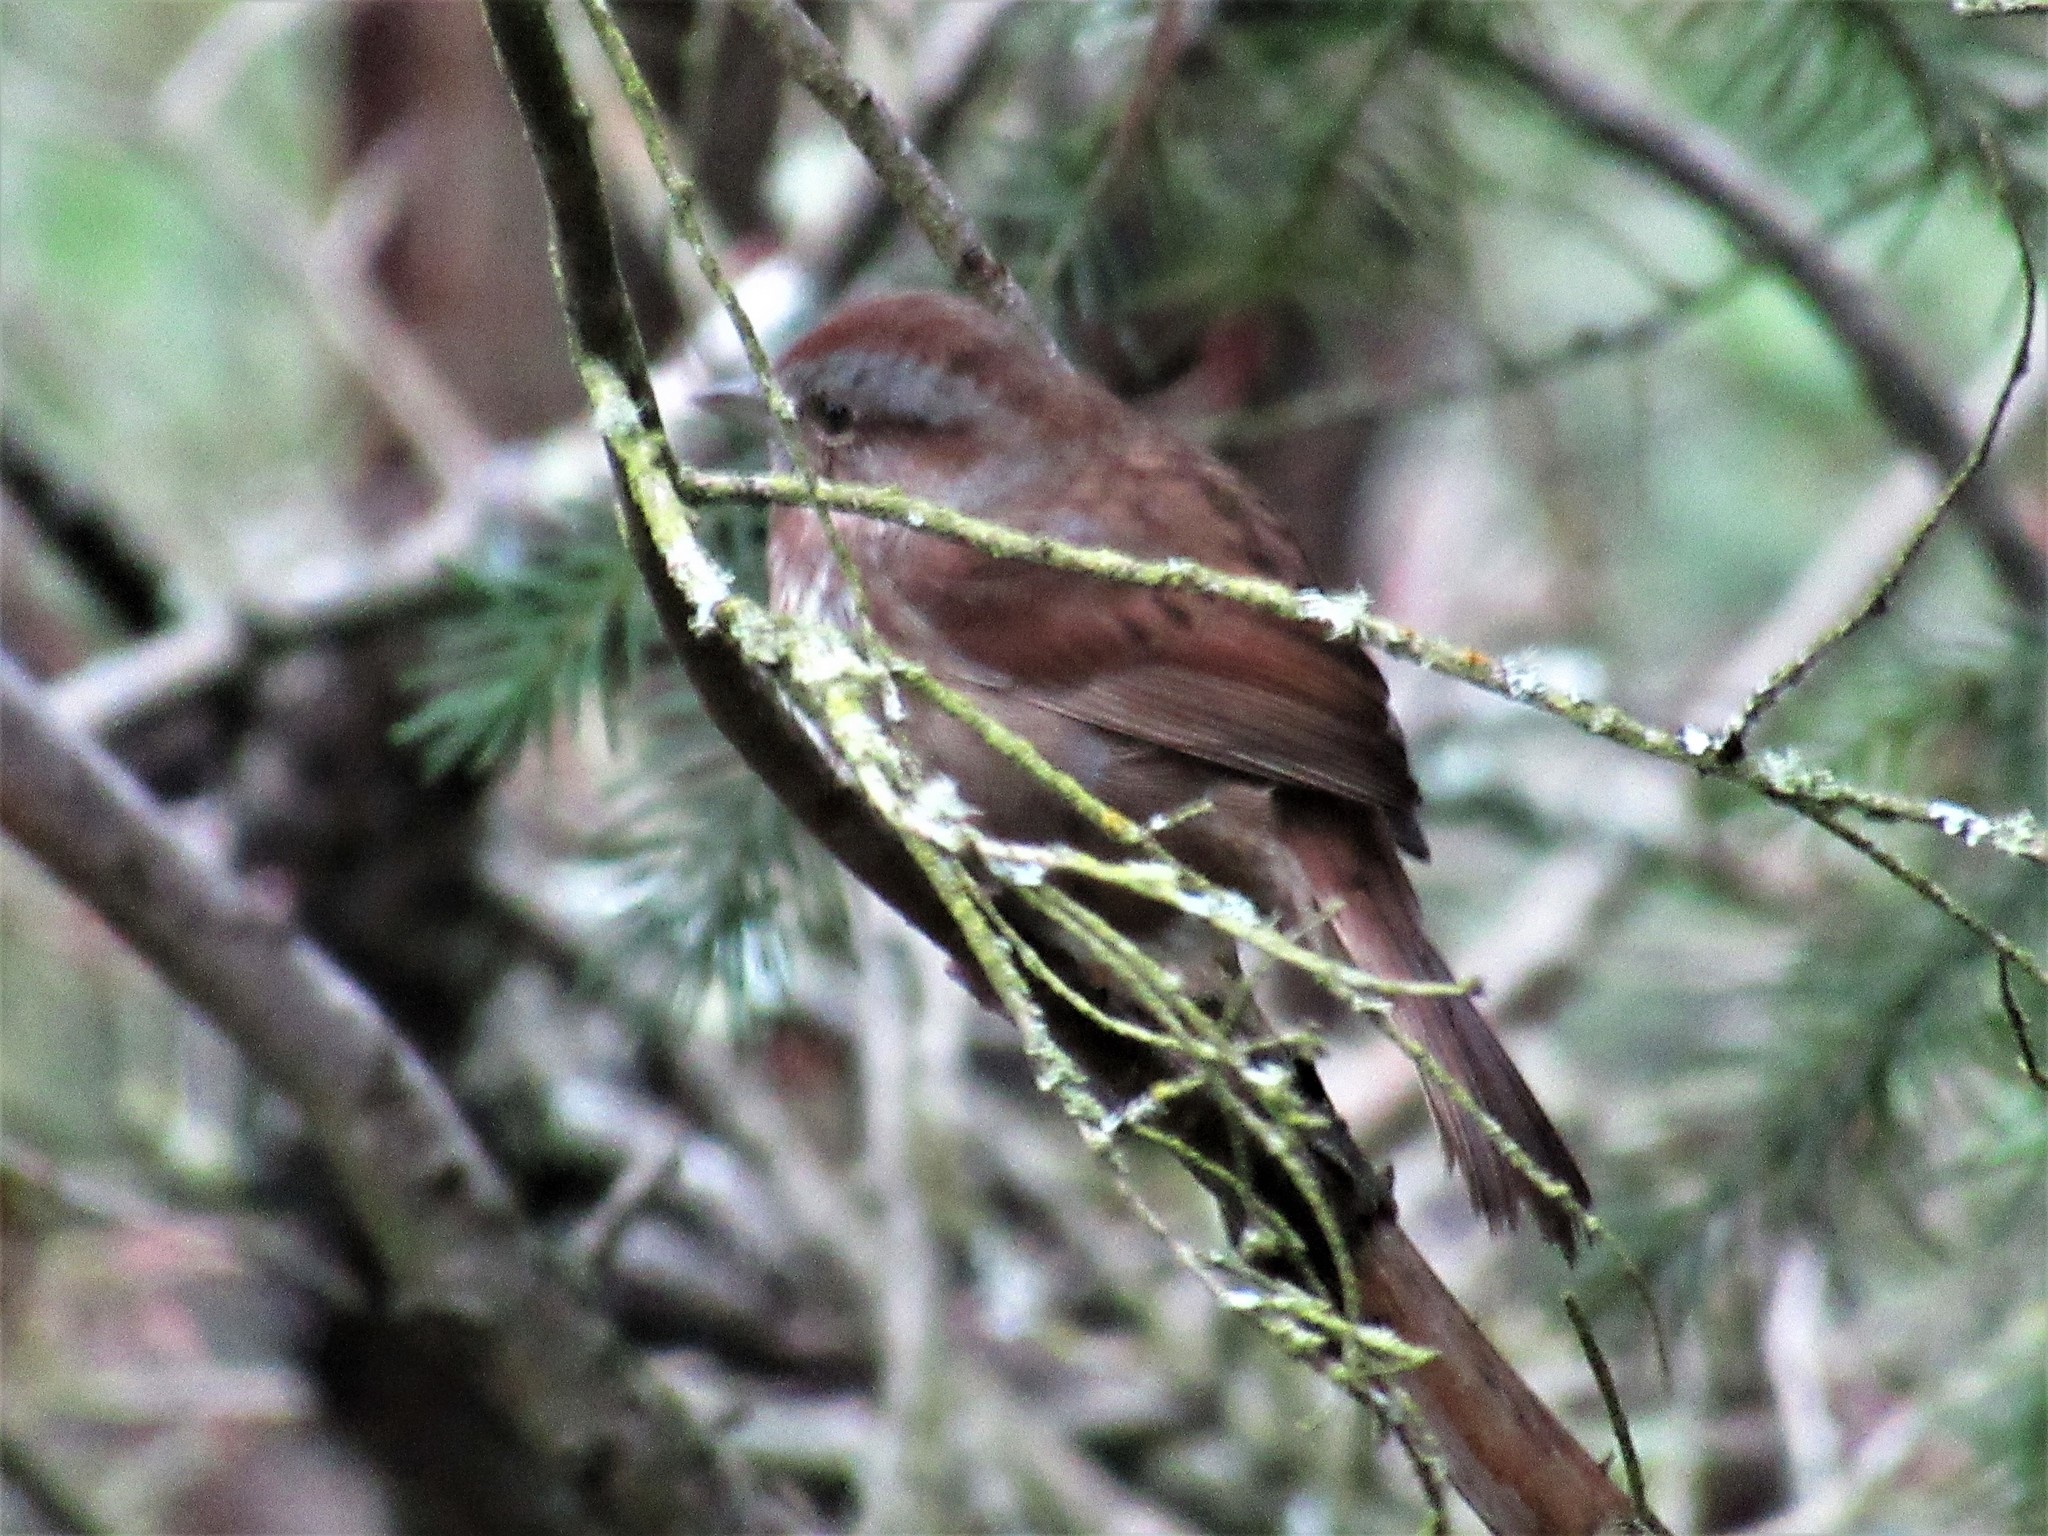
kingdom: Animalia
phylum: Chordata
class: Aves
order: Passeriformes
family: Passerellidae
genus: Melospiza
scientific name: Melospiza melodia
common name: Song sparrow
